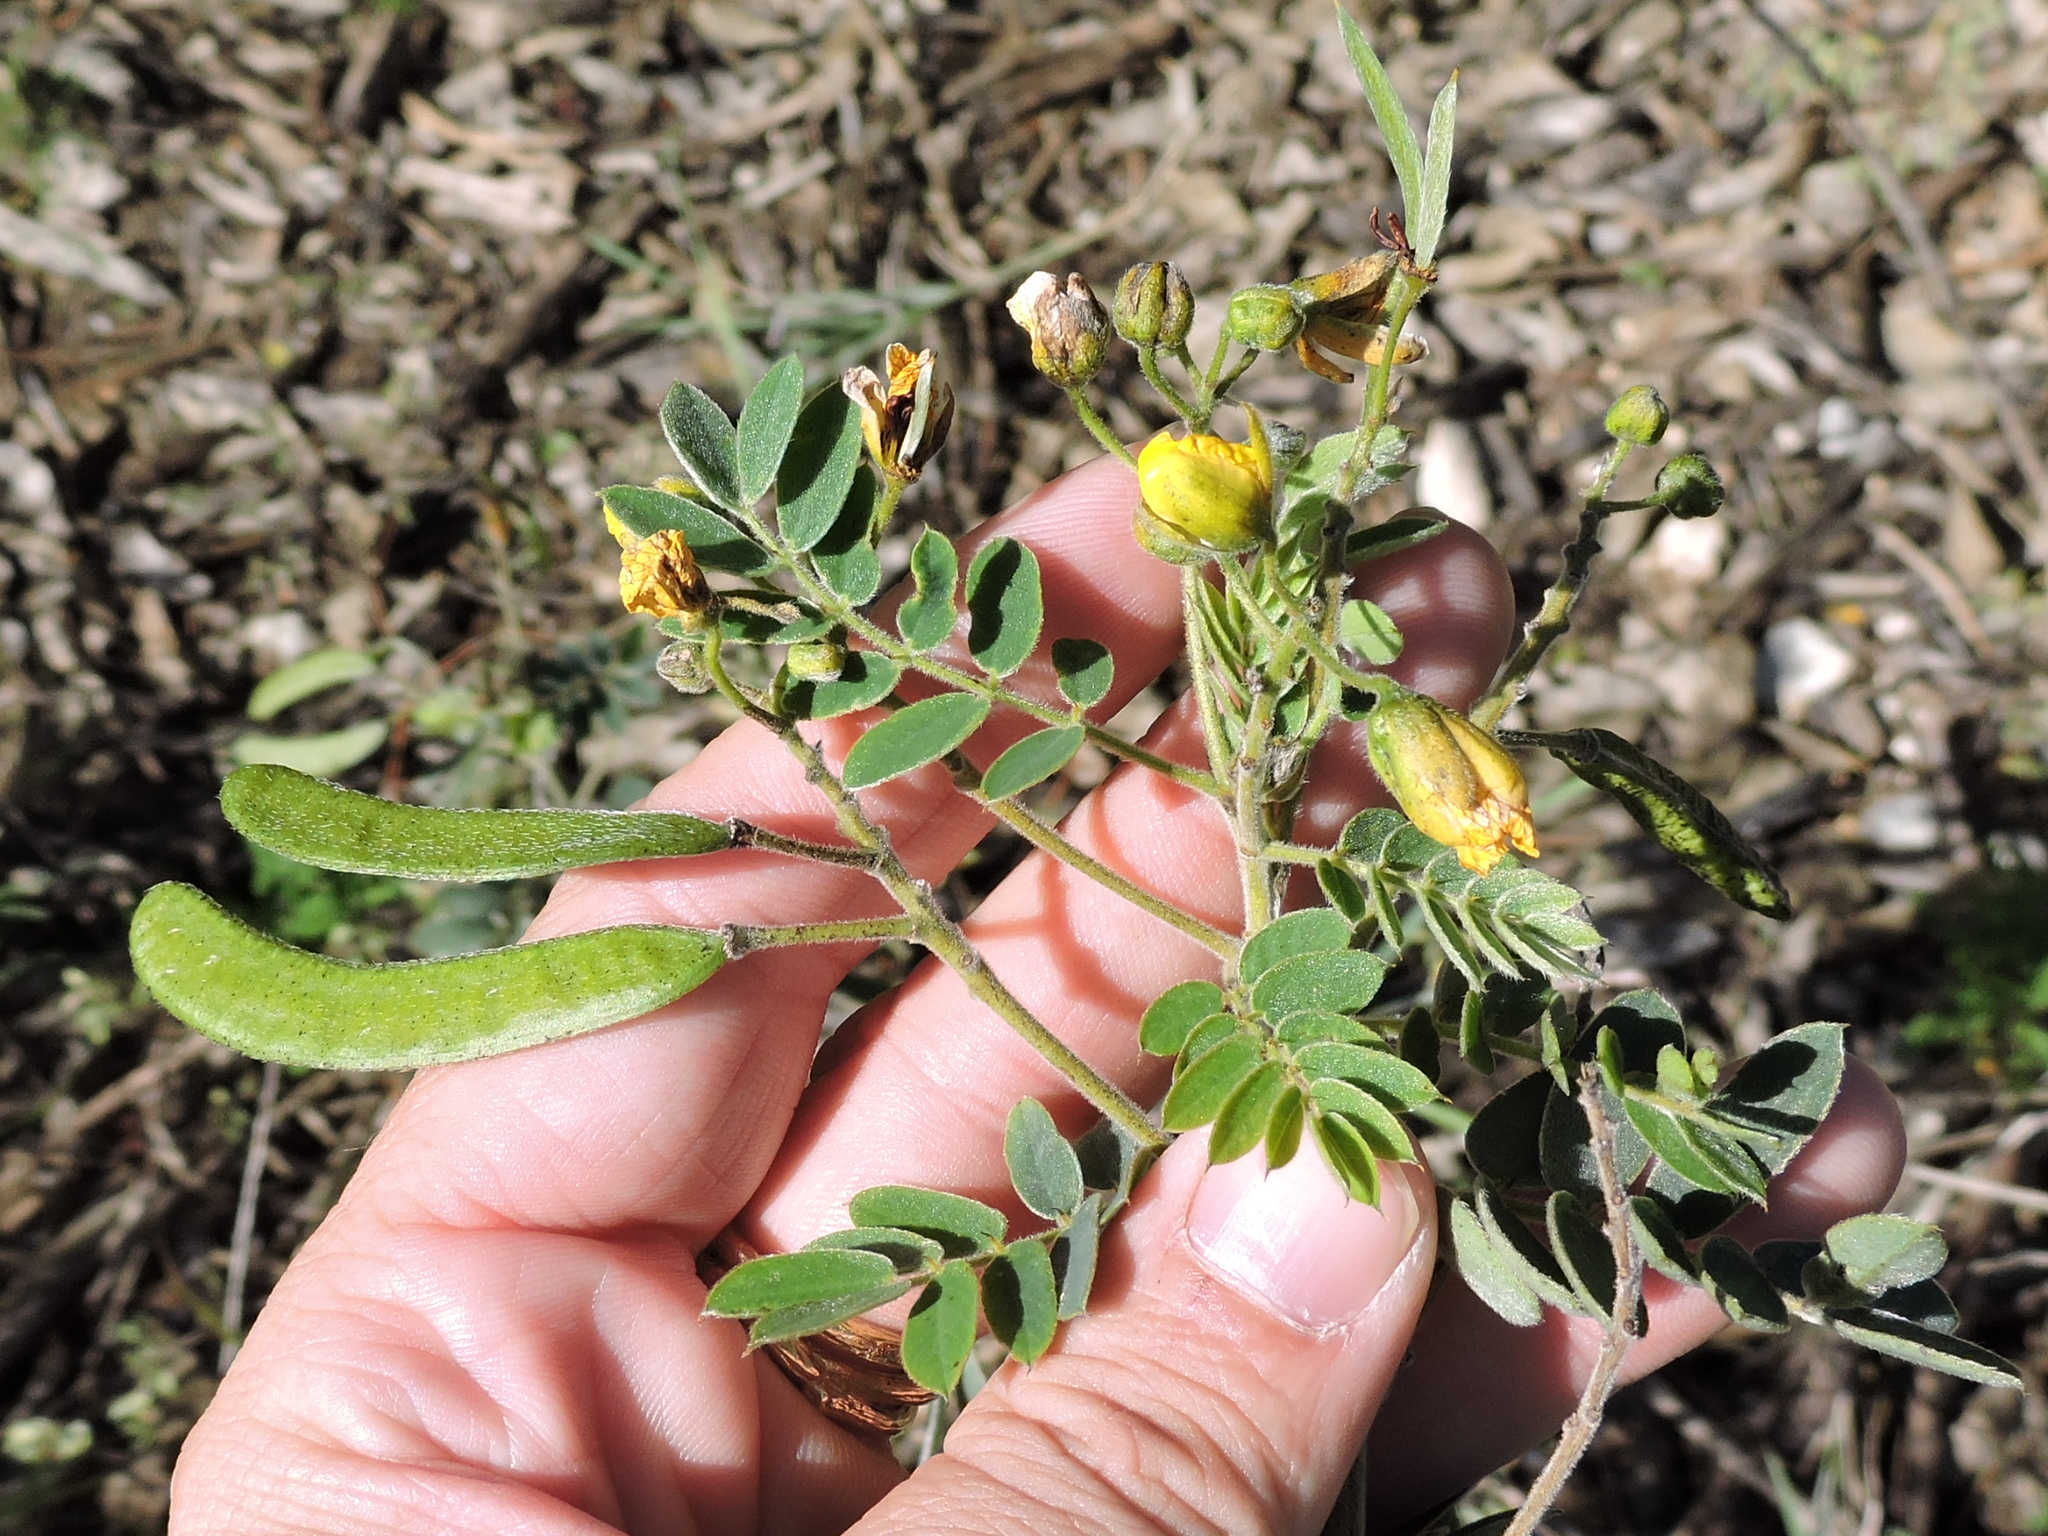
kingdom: Plantae
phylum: Tracheophyta
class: Magnoliopsida
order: Fabales
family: Fabaceae
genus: Senna
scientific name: Senna lindheimeriana
